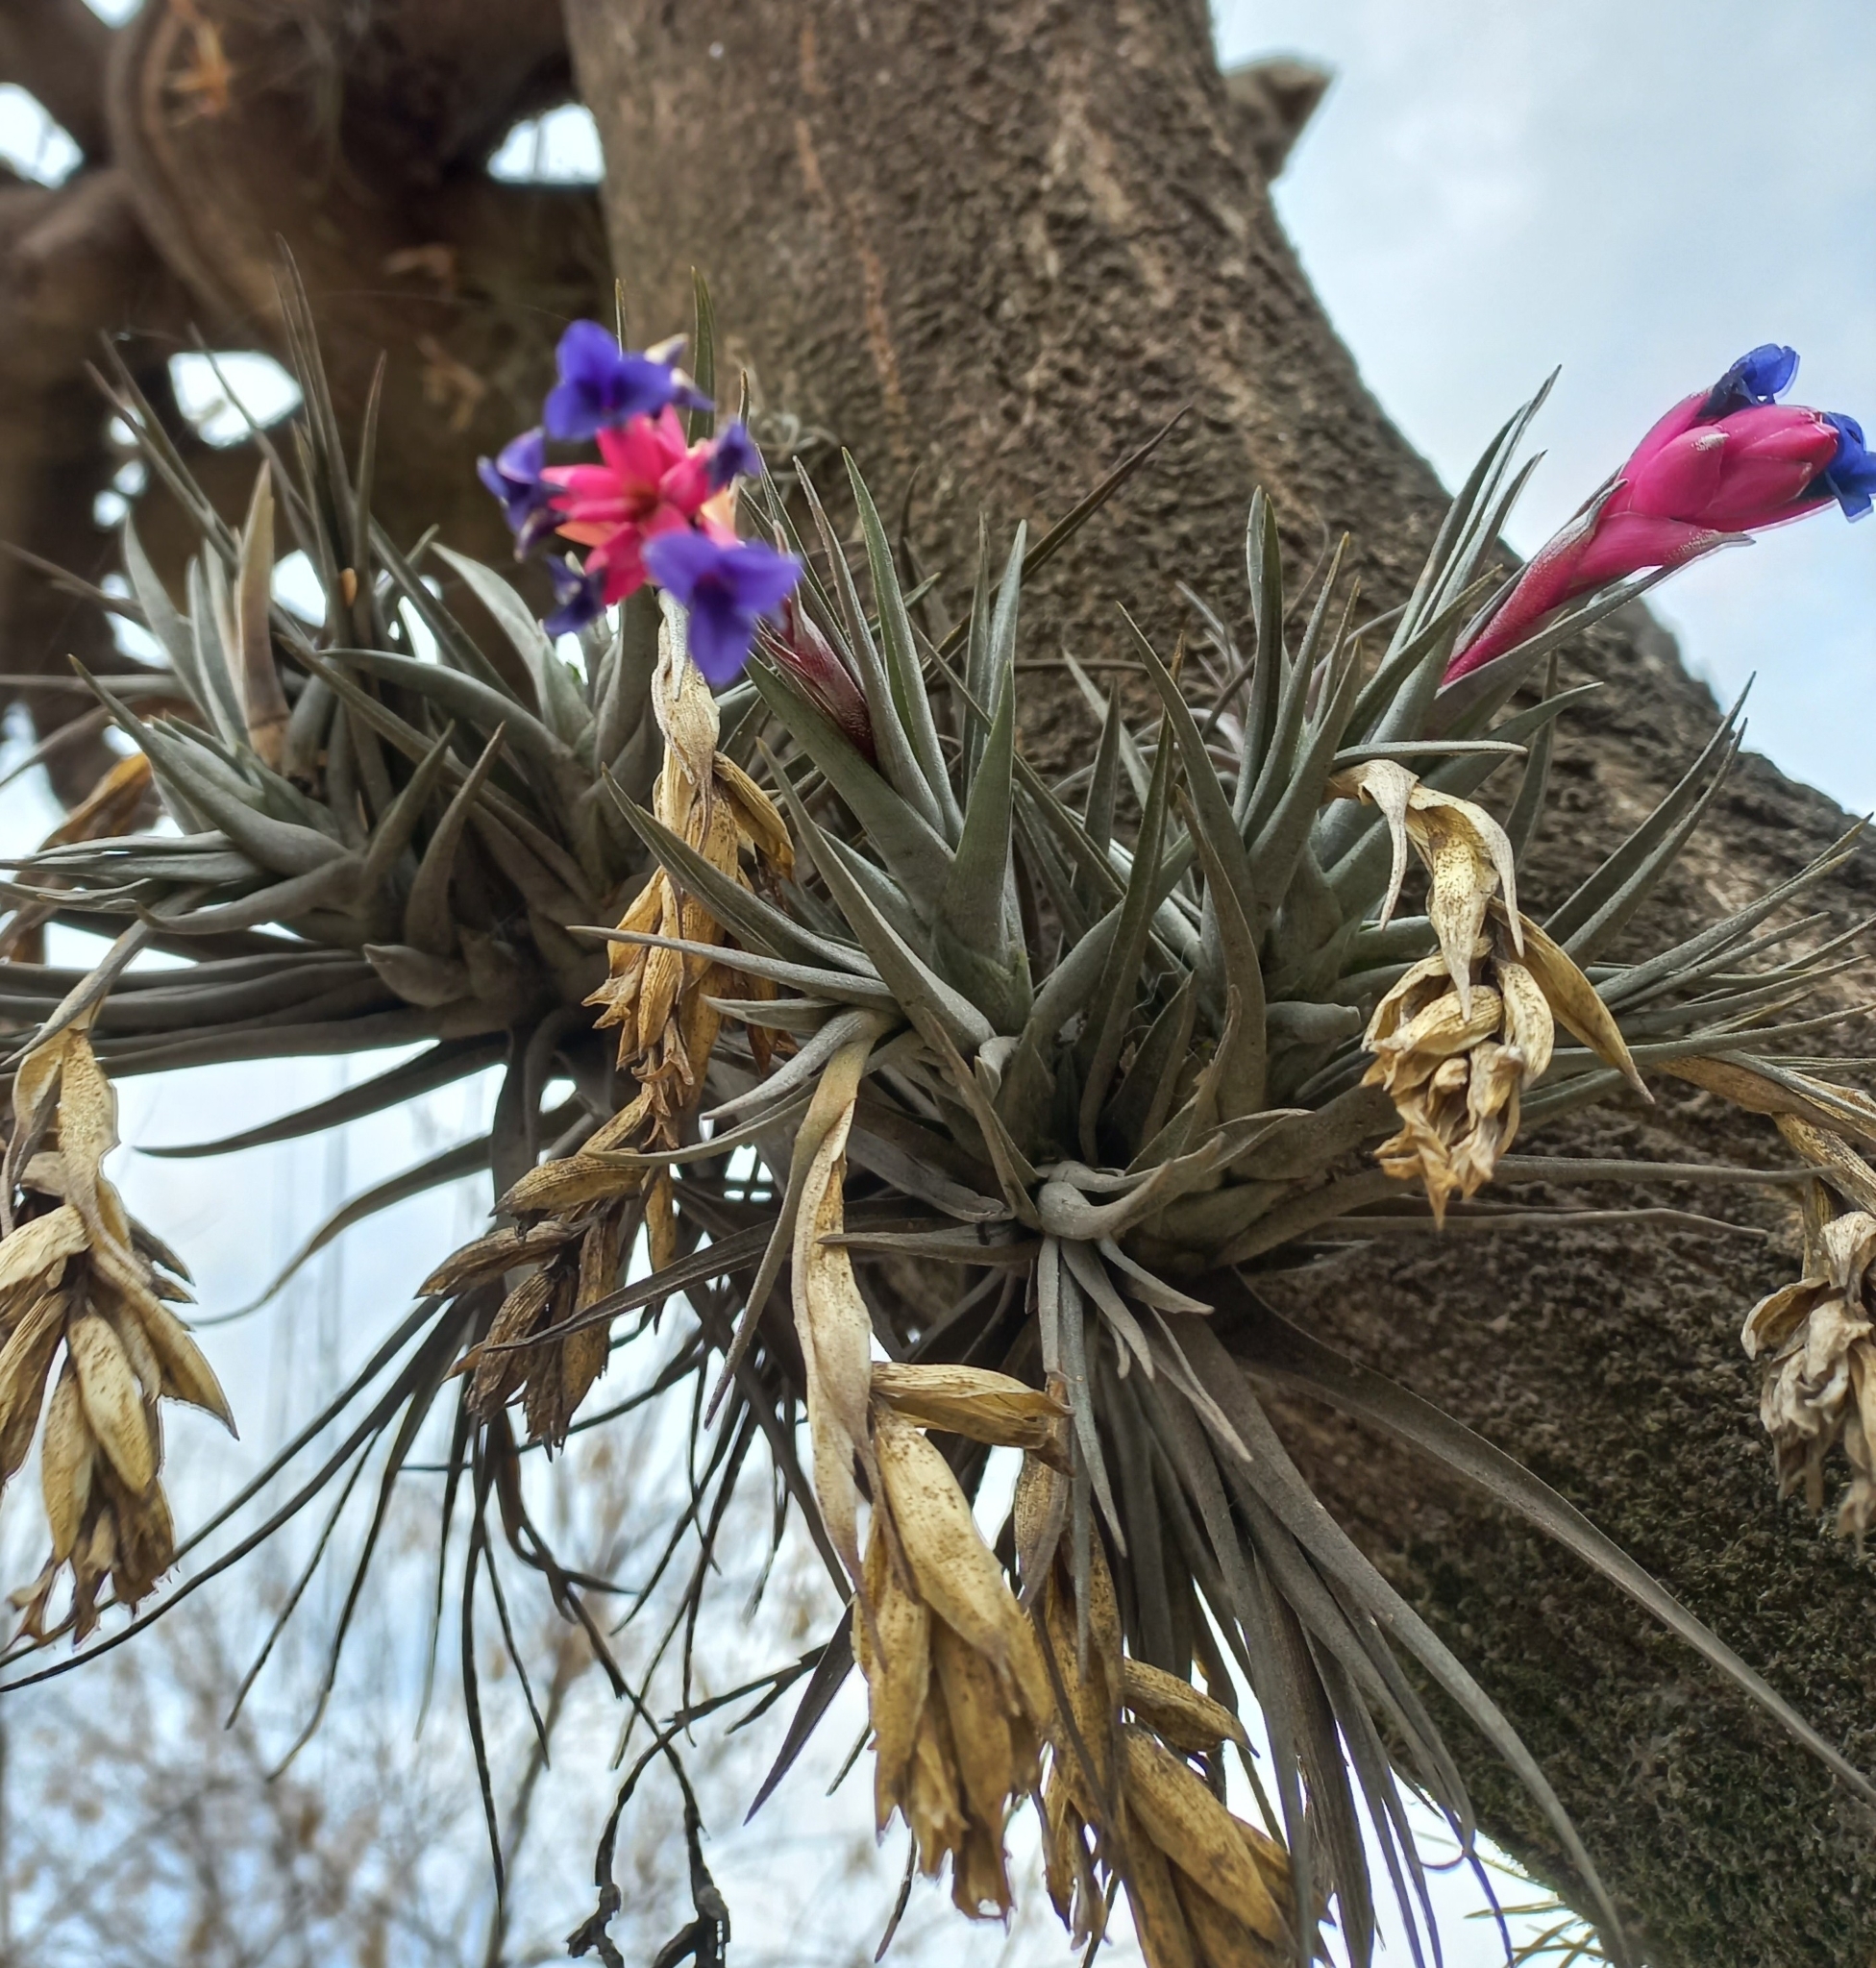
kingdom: Plantae
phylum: Tracheophyta
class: Liliopsida
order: Poales
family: Bromeliaceae
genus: Tillandsia
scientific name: Tillandsia aeranthos
